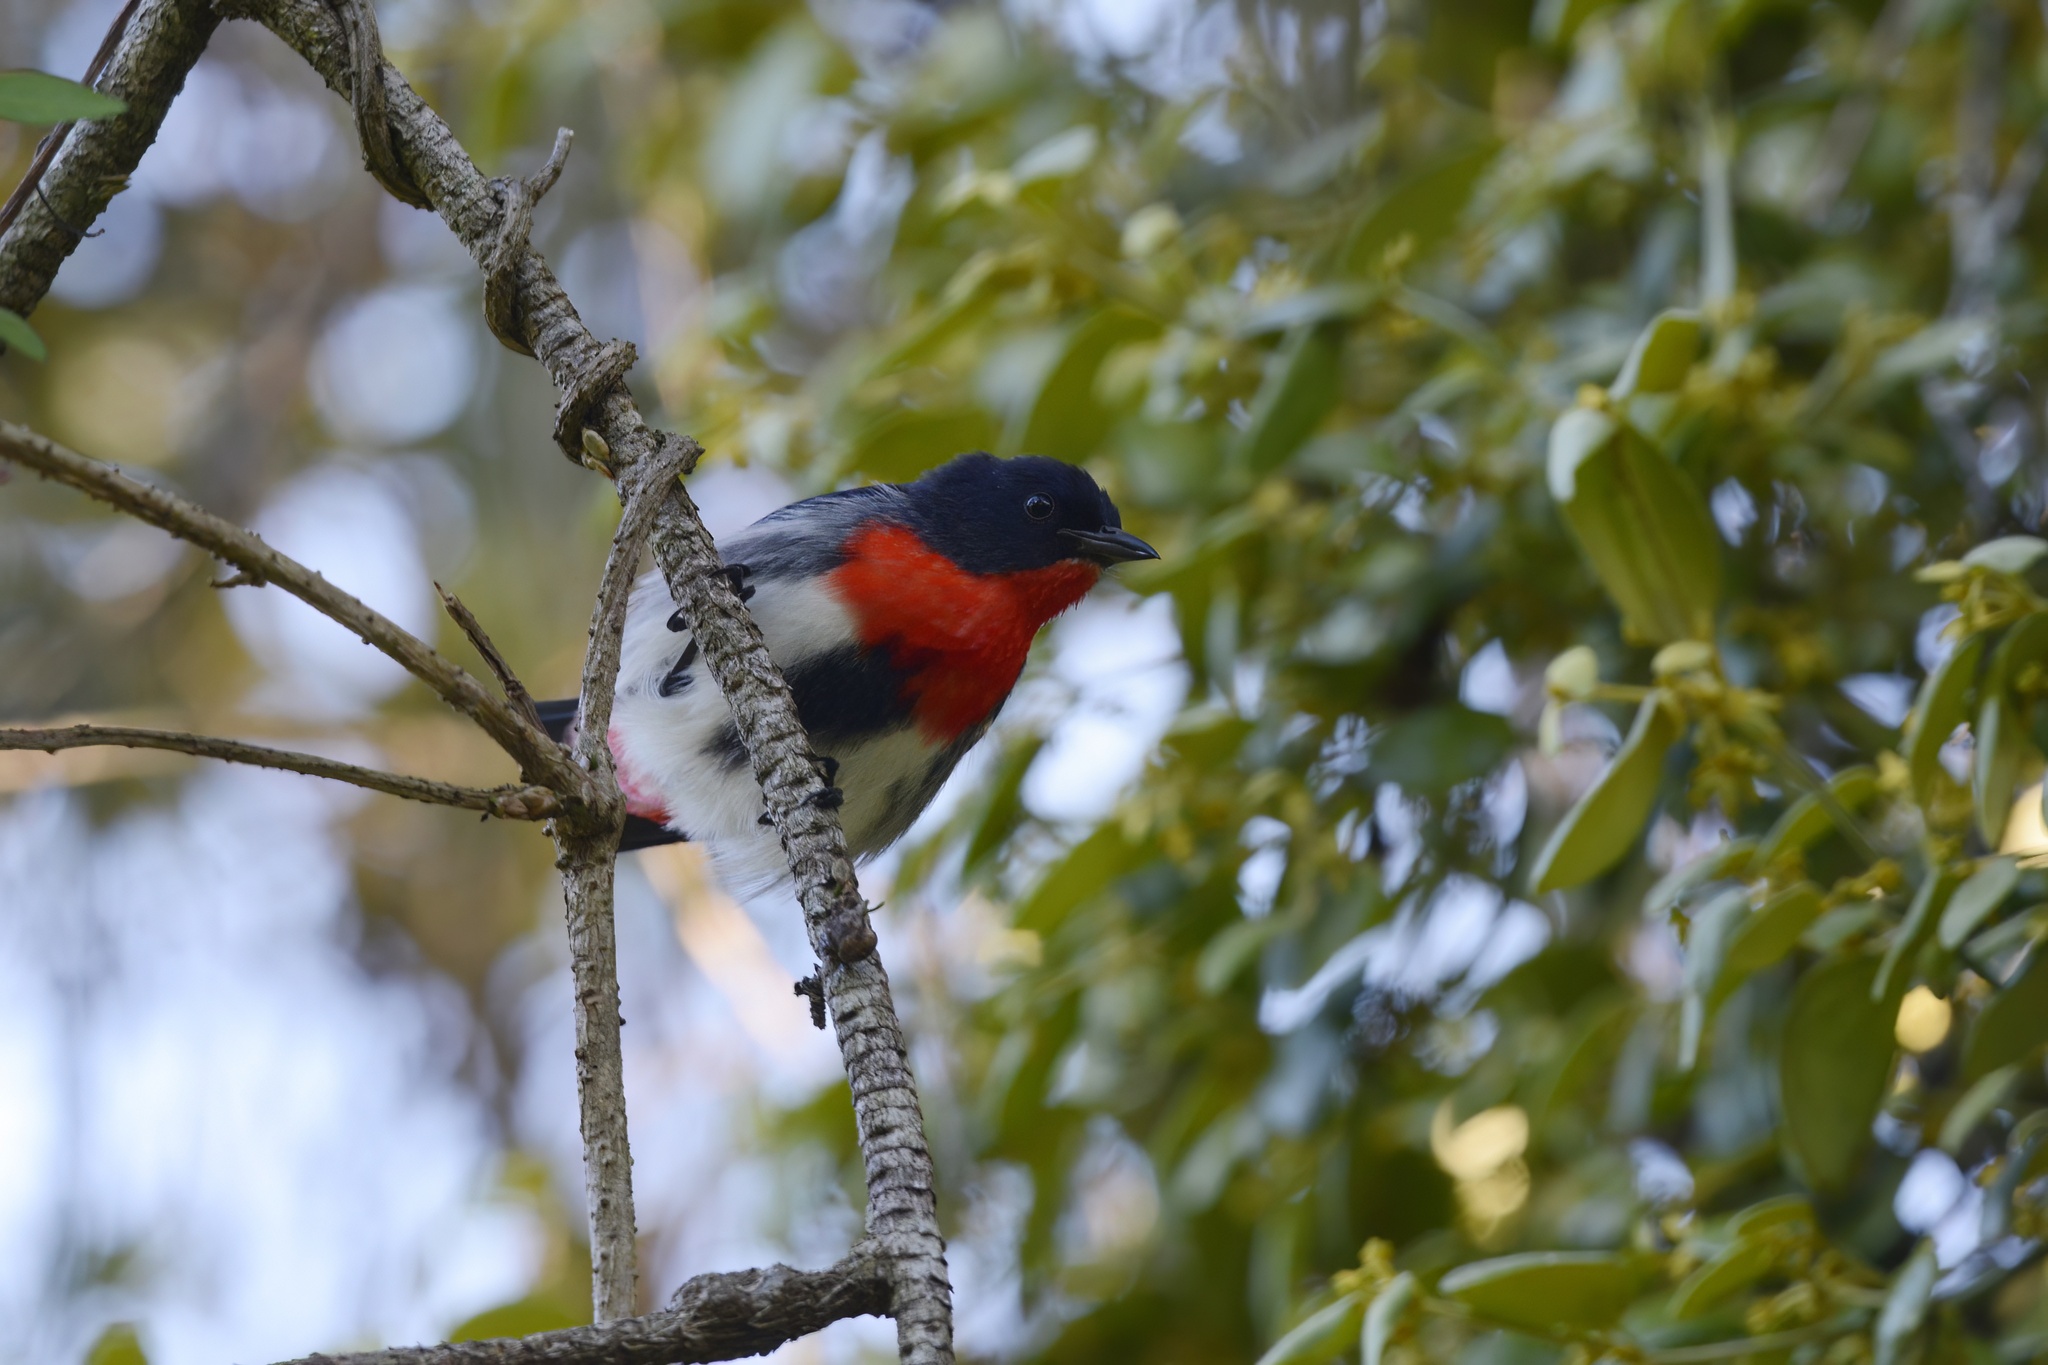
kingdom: Animalia
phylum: Chordata
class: Aves
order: Passeriformes
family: Dicaeidae
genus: Dicaeum
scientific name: Dicaeum hirundinaceum
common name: Mistletoebird
